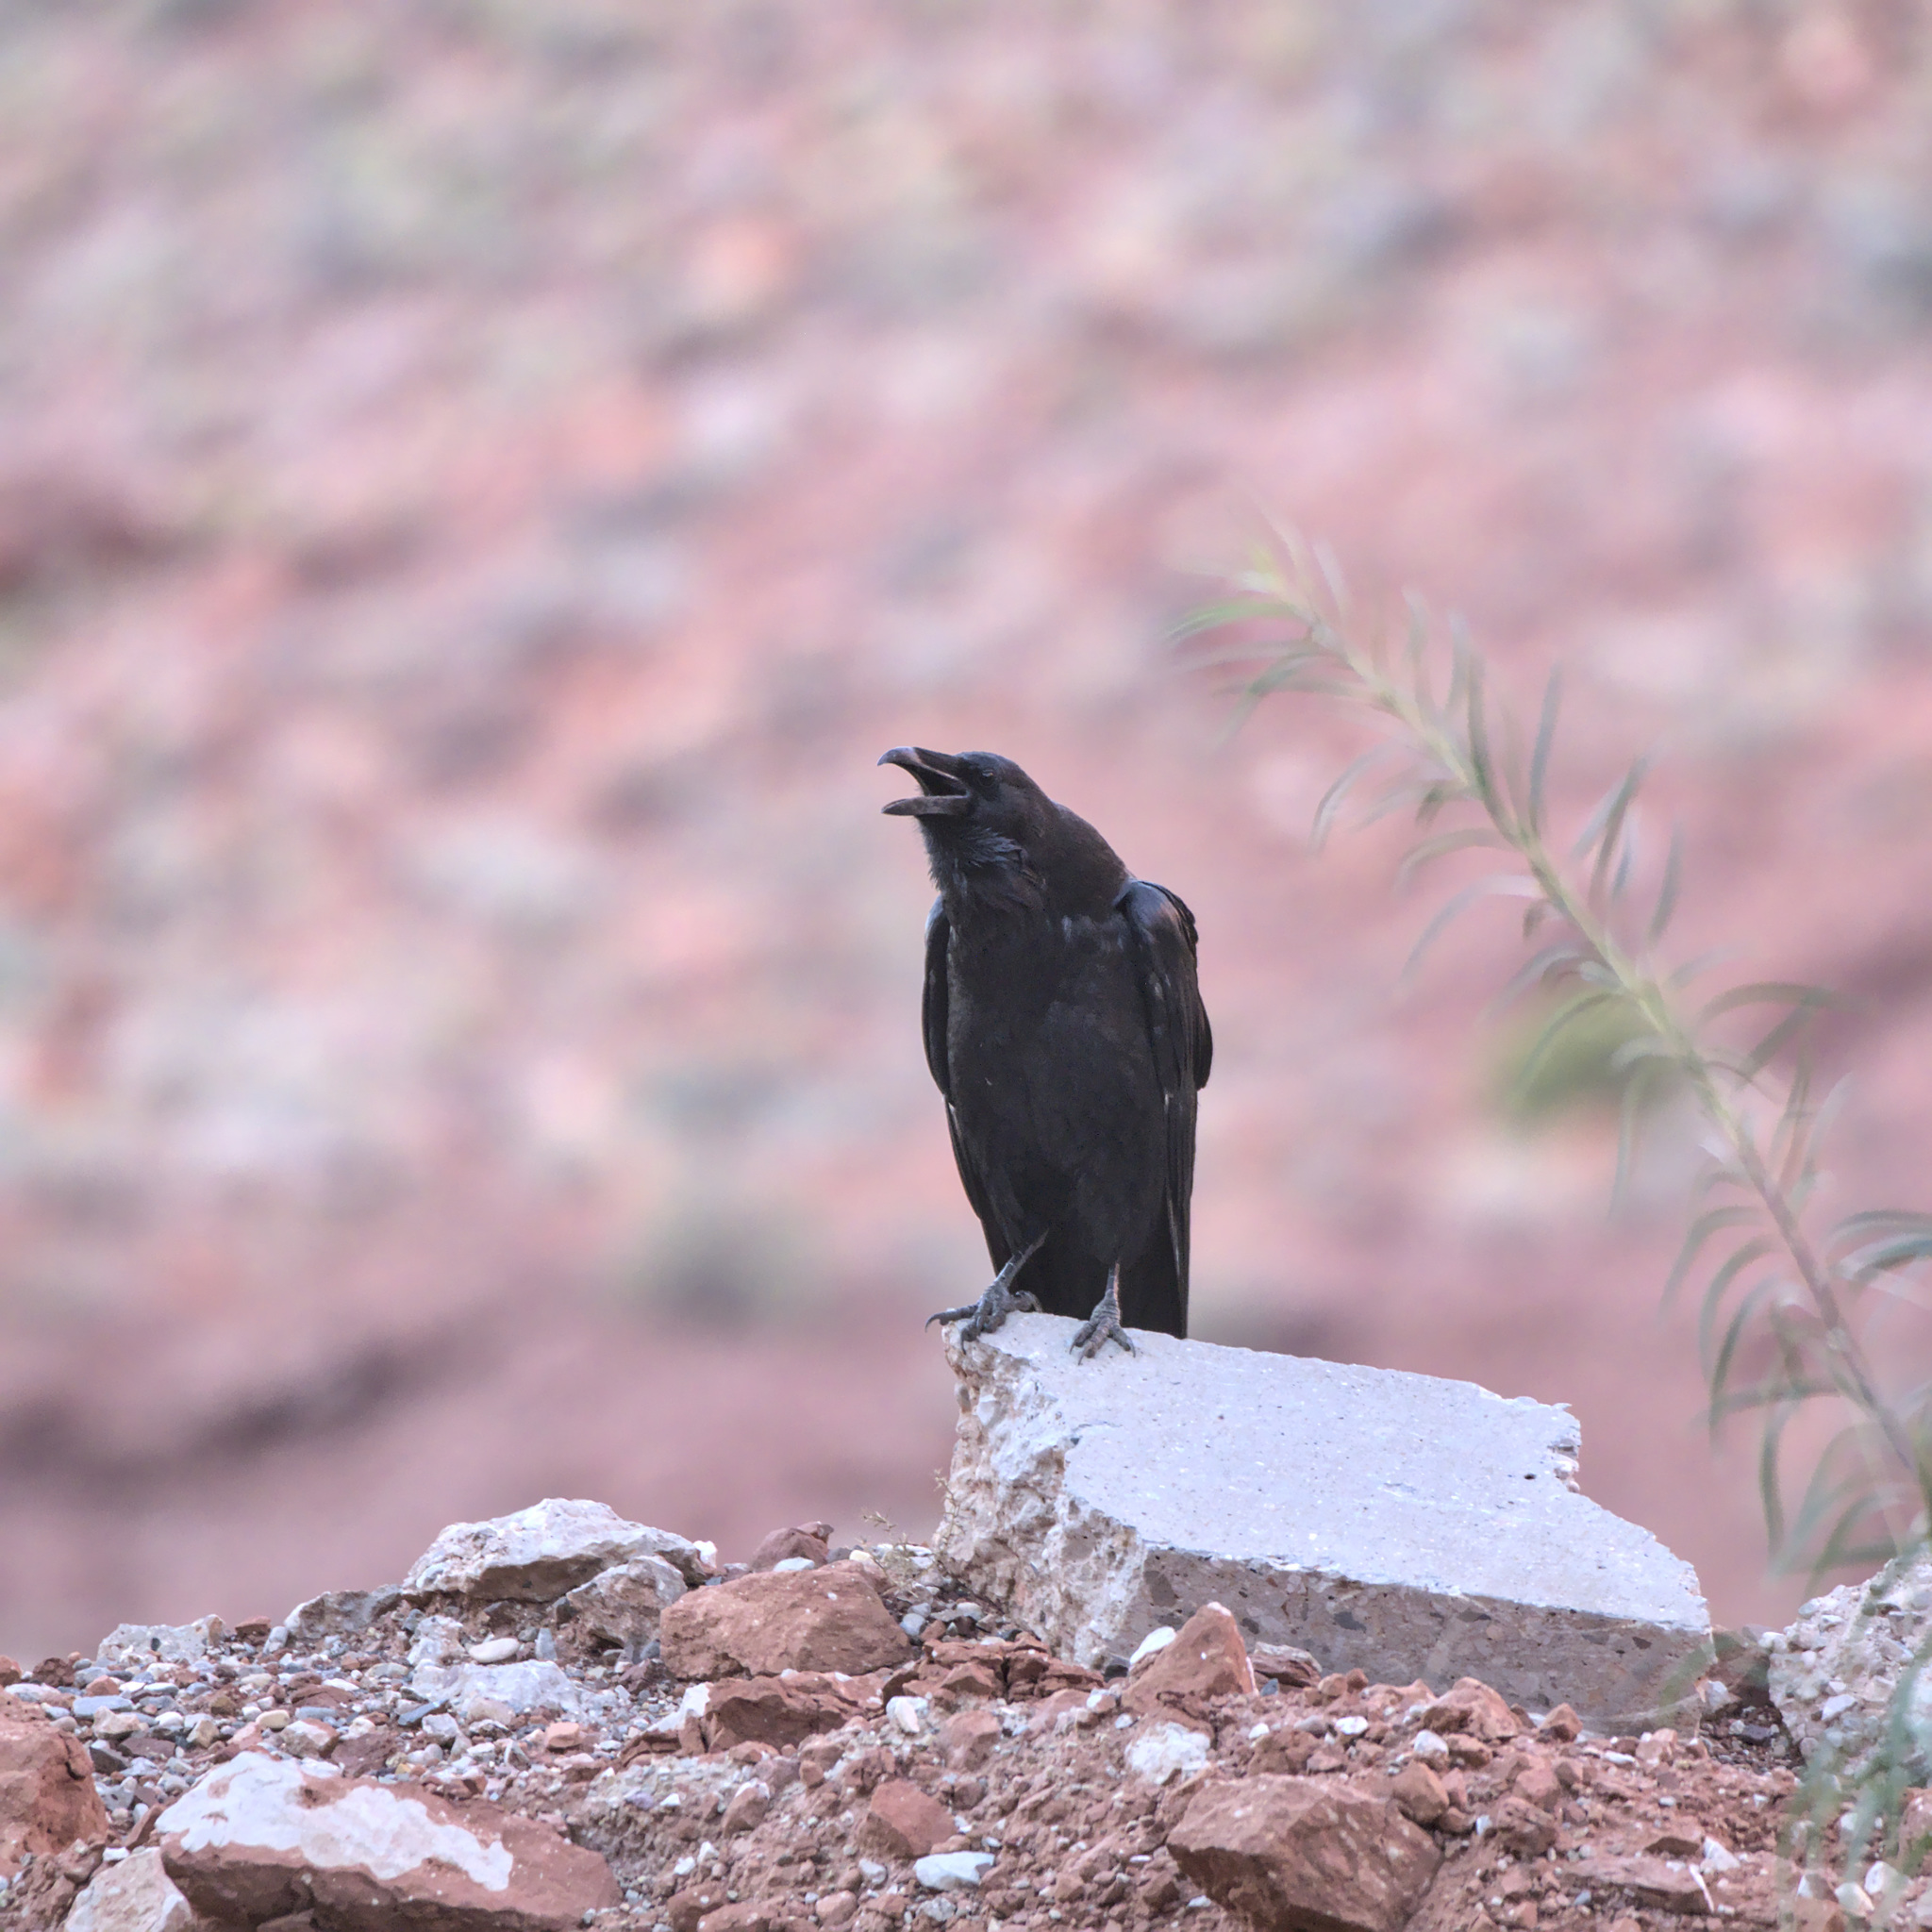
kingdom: Animalia
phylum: Chordata
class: Aves
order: Passeriformes
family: Corvidae
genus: Corvus
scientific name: Corvus corax
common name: Common raven
